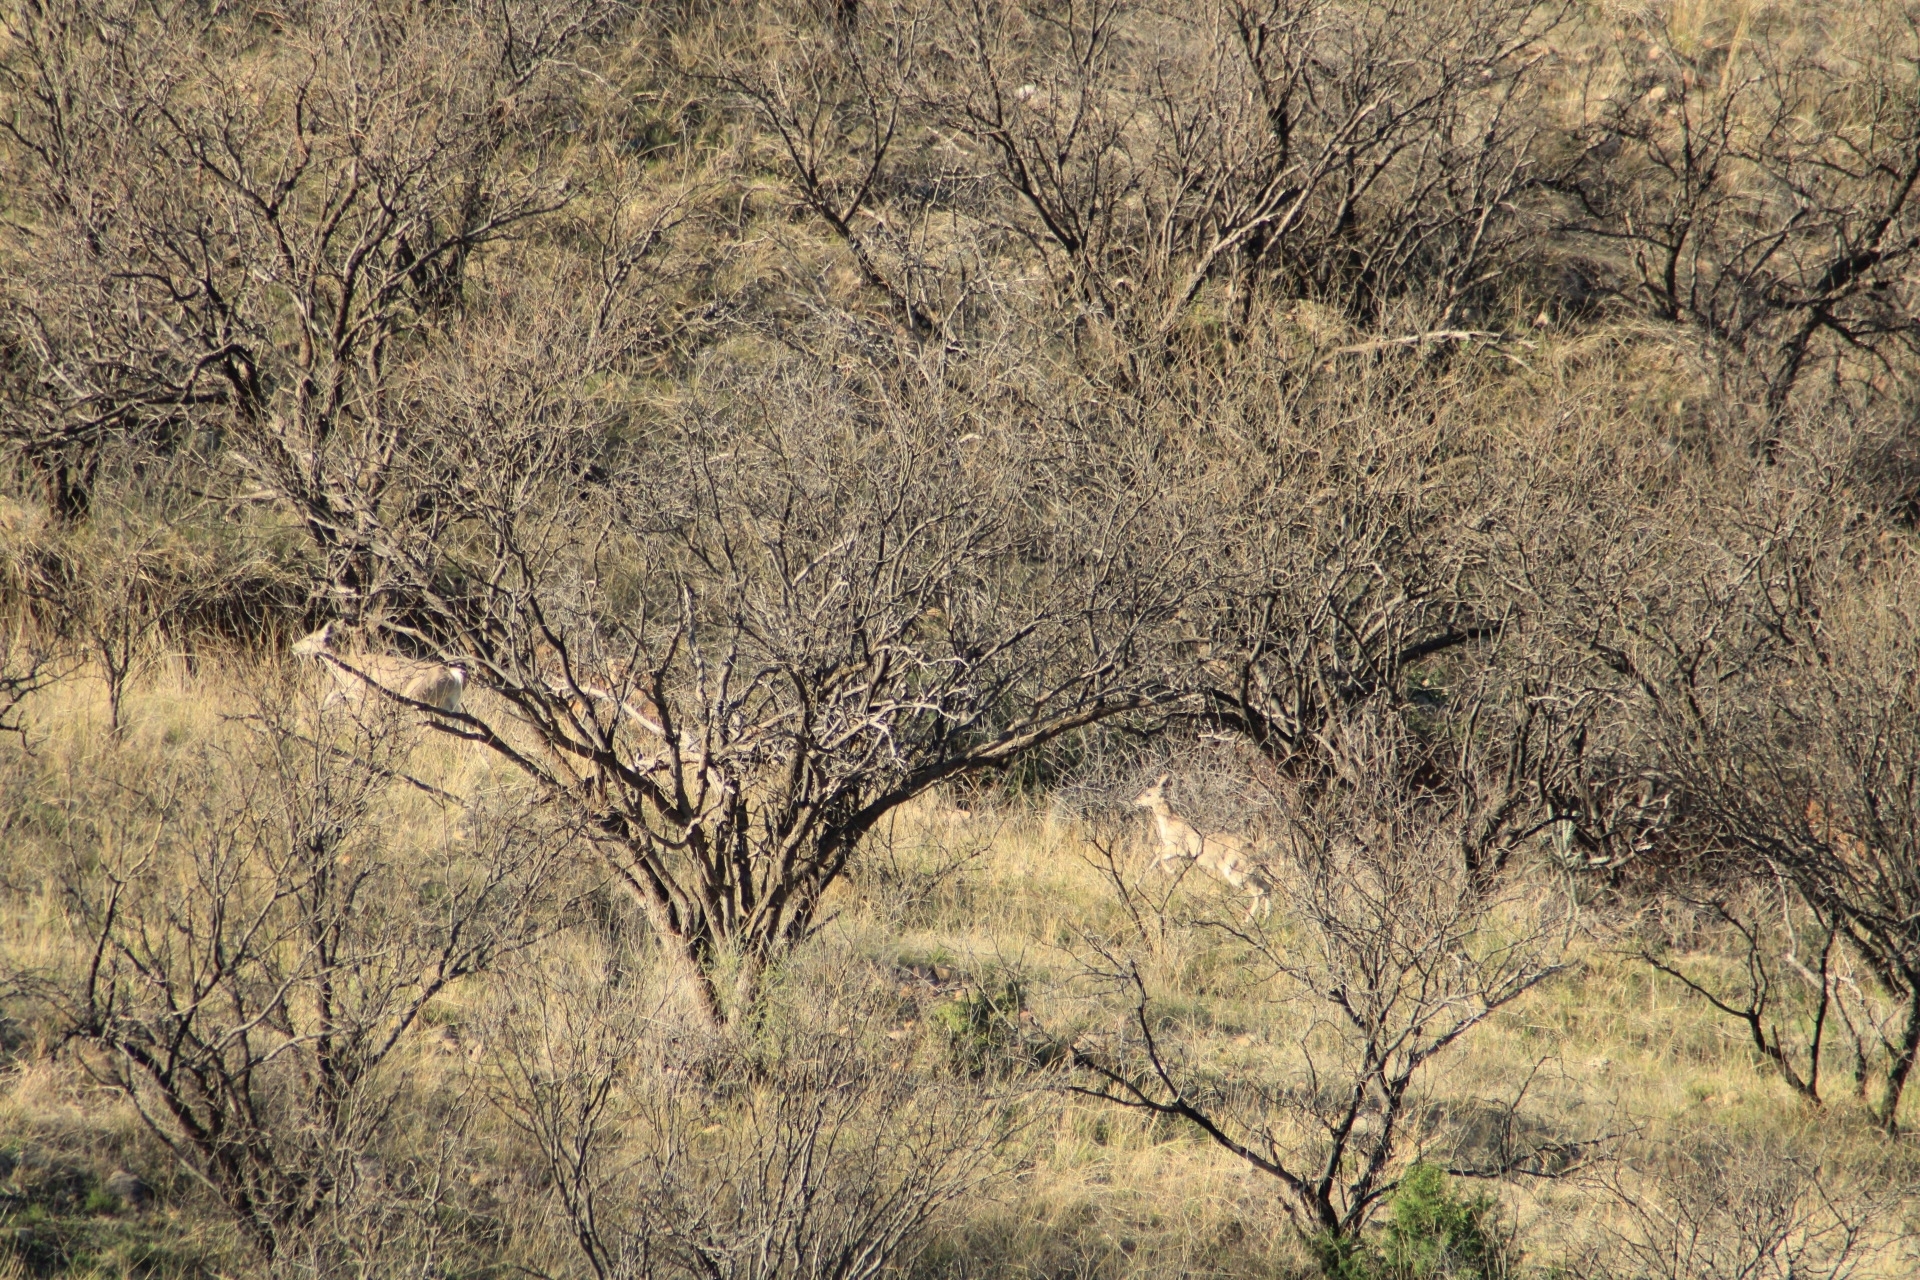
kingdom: Animalia
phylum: Chordata
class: Mammalia
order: Artiodactyla
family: Cervidae
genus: Odocoileus
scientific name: Odocoileus virginianus
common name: White-tailed deer
